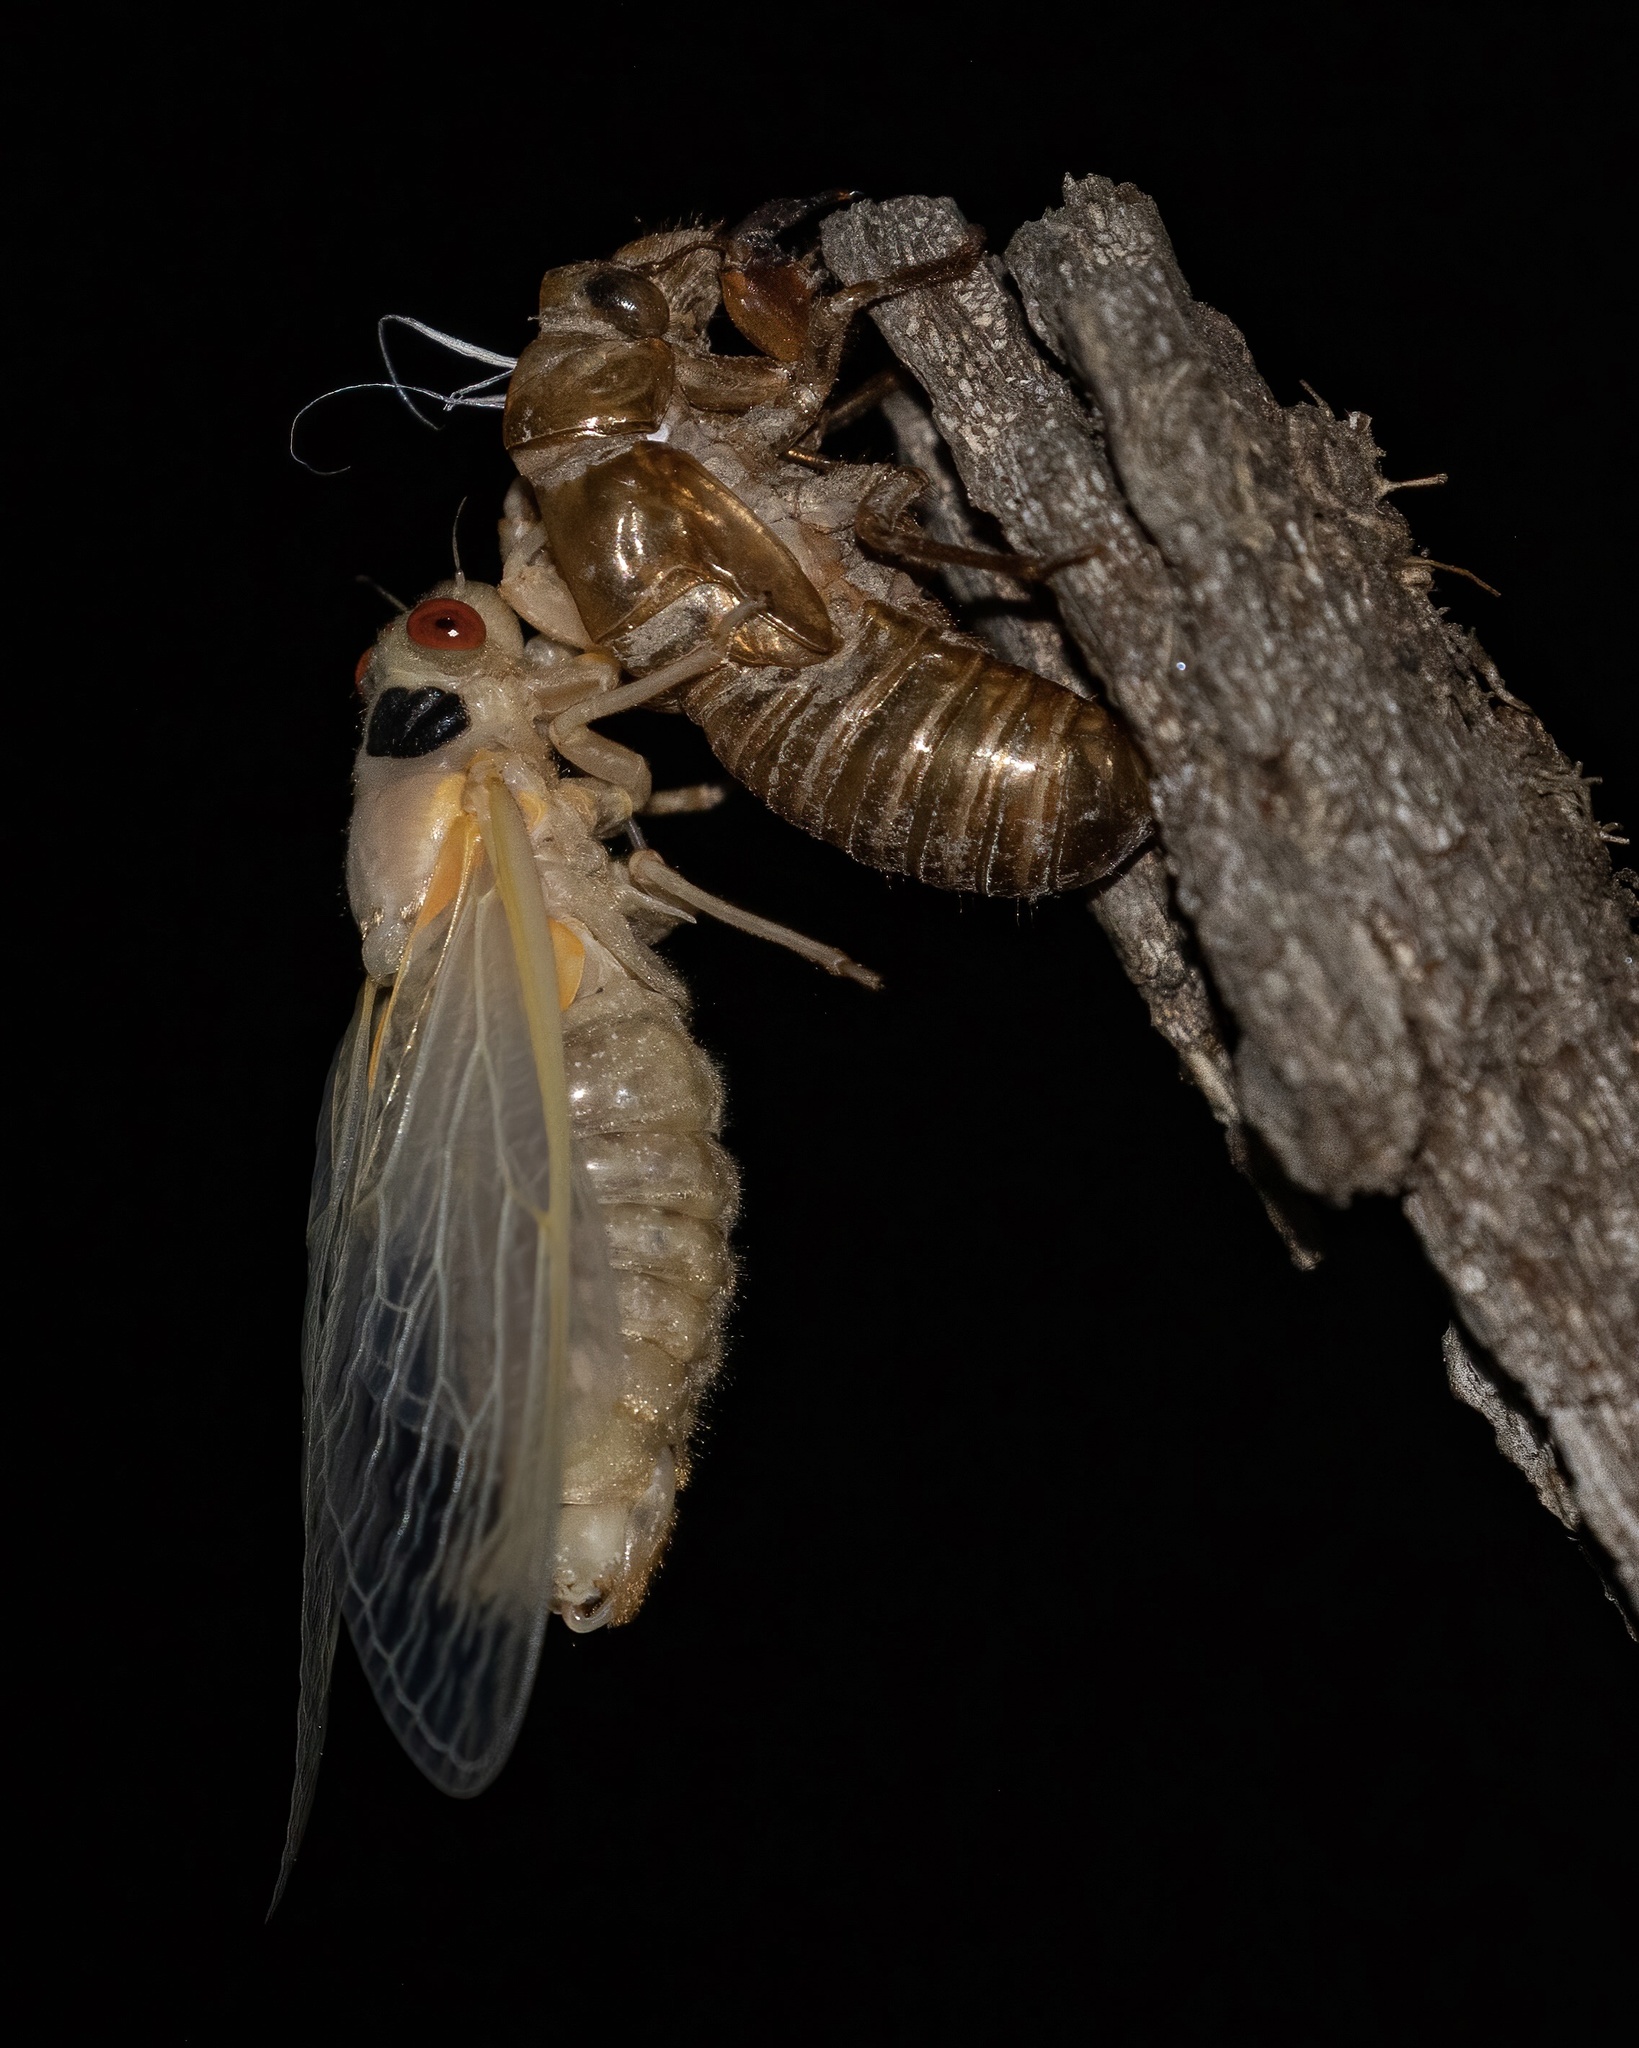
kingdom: Animalia
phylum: Arthropoda
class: Insecta
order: Hemiptera
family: Cicadidae
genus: Magicicada
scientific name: Magicicada
